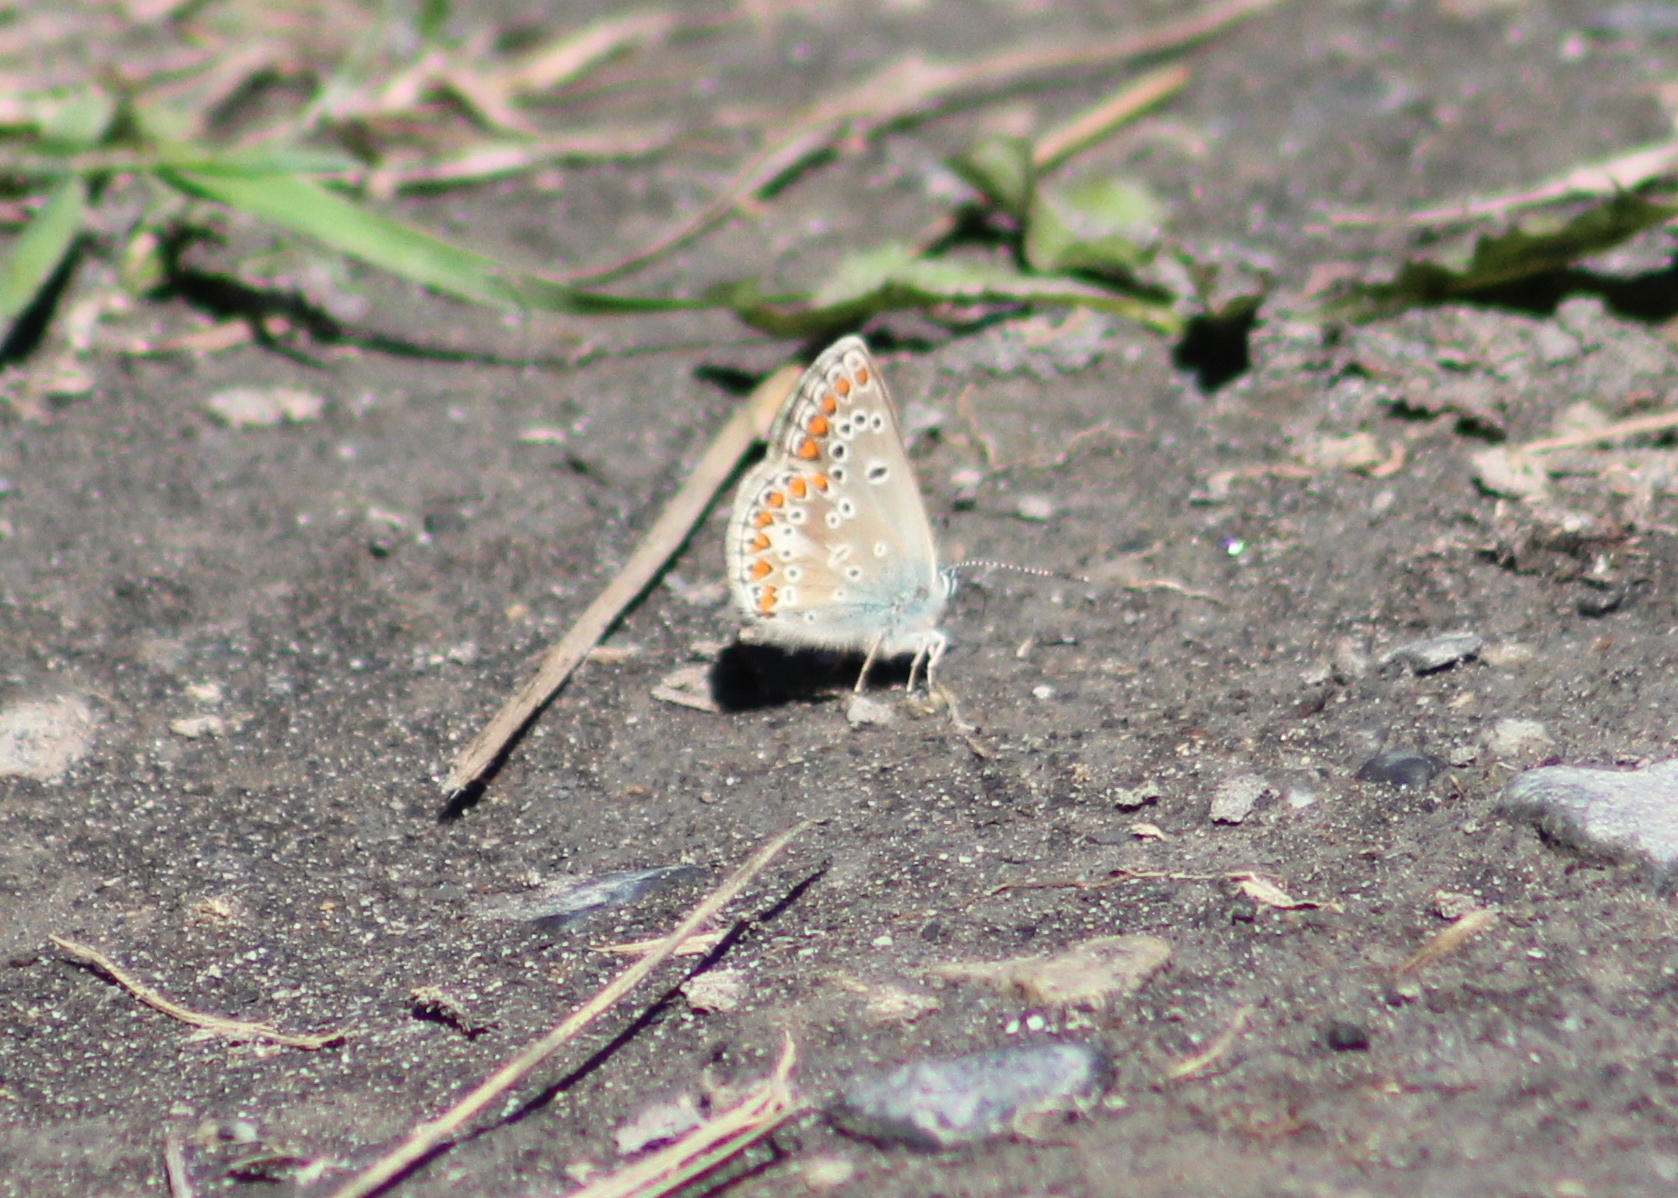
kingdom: Animalia
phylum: Arthropoda
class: Insecta
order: Lepidoptera
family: Lycaenidae
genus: Aricia
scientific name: Aricia agestis
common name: Brown argus
